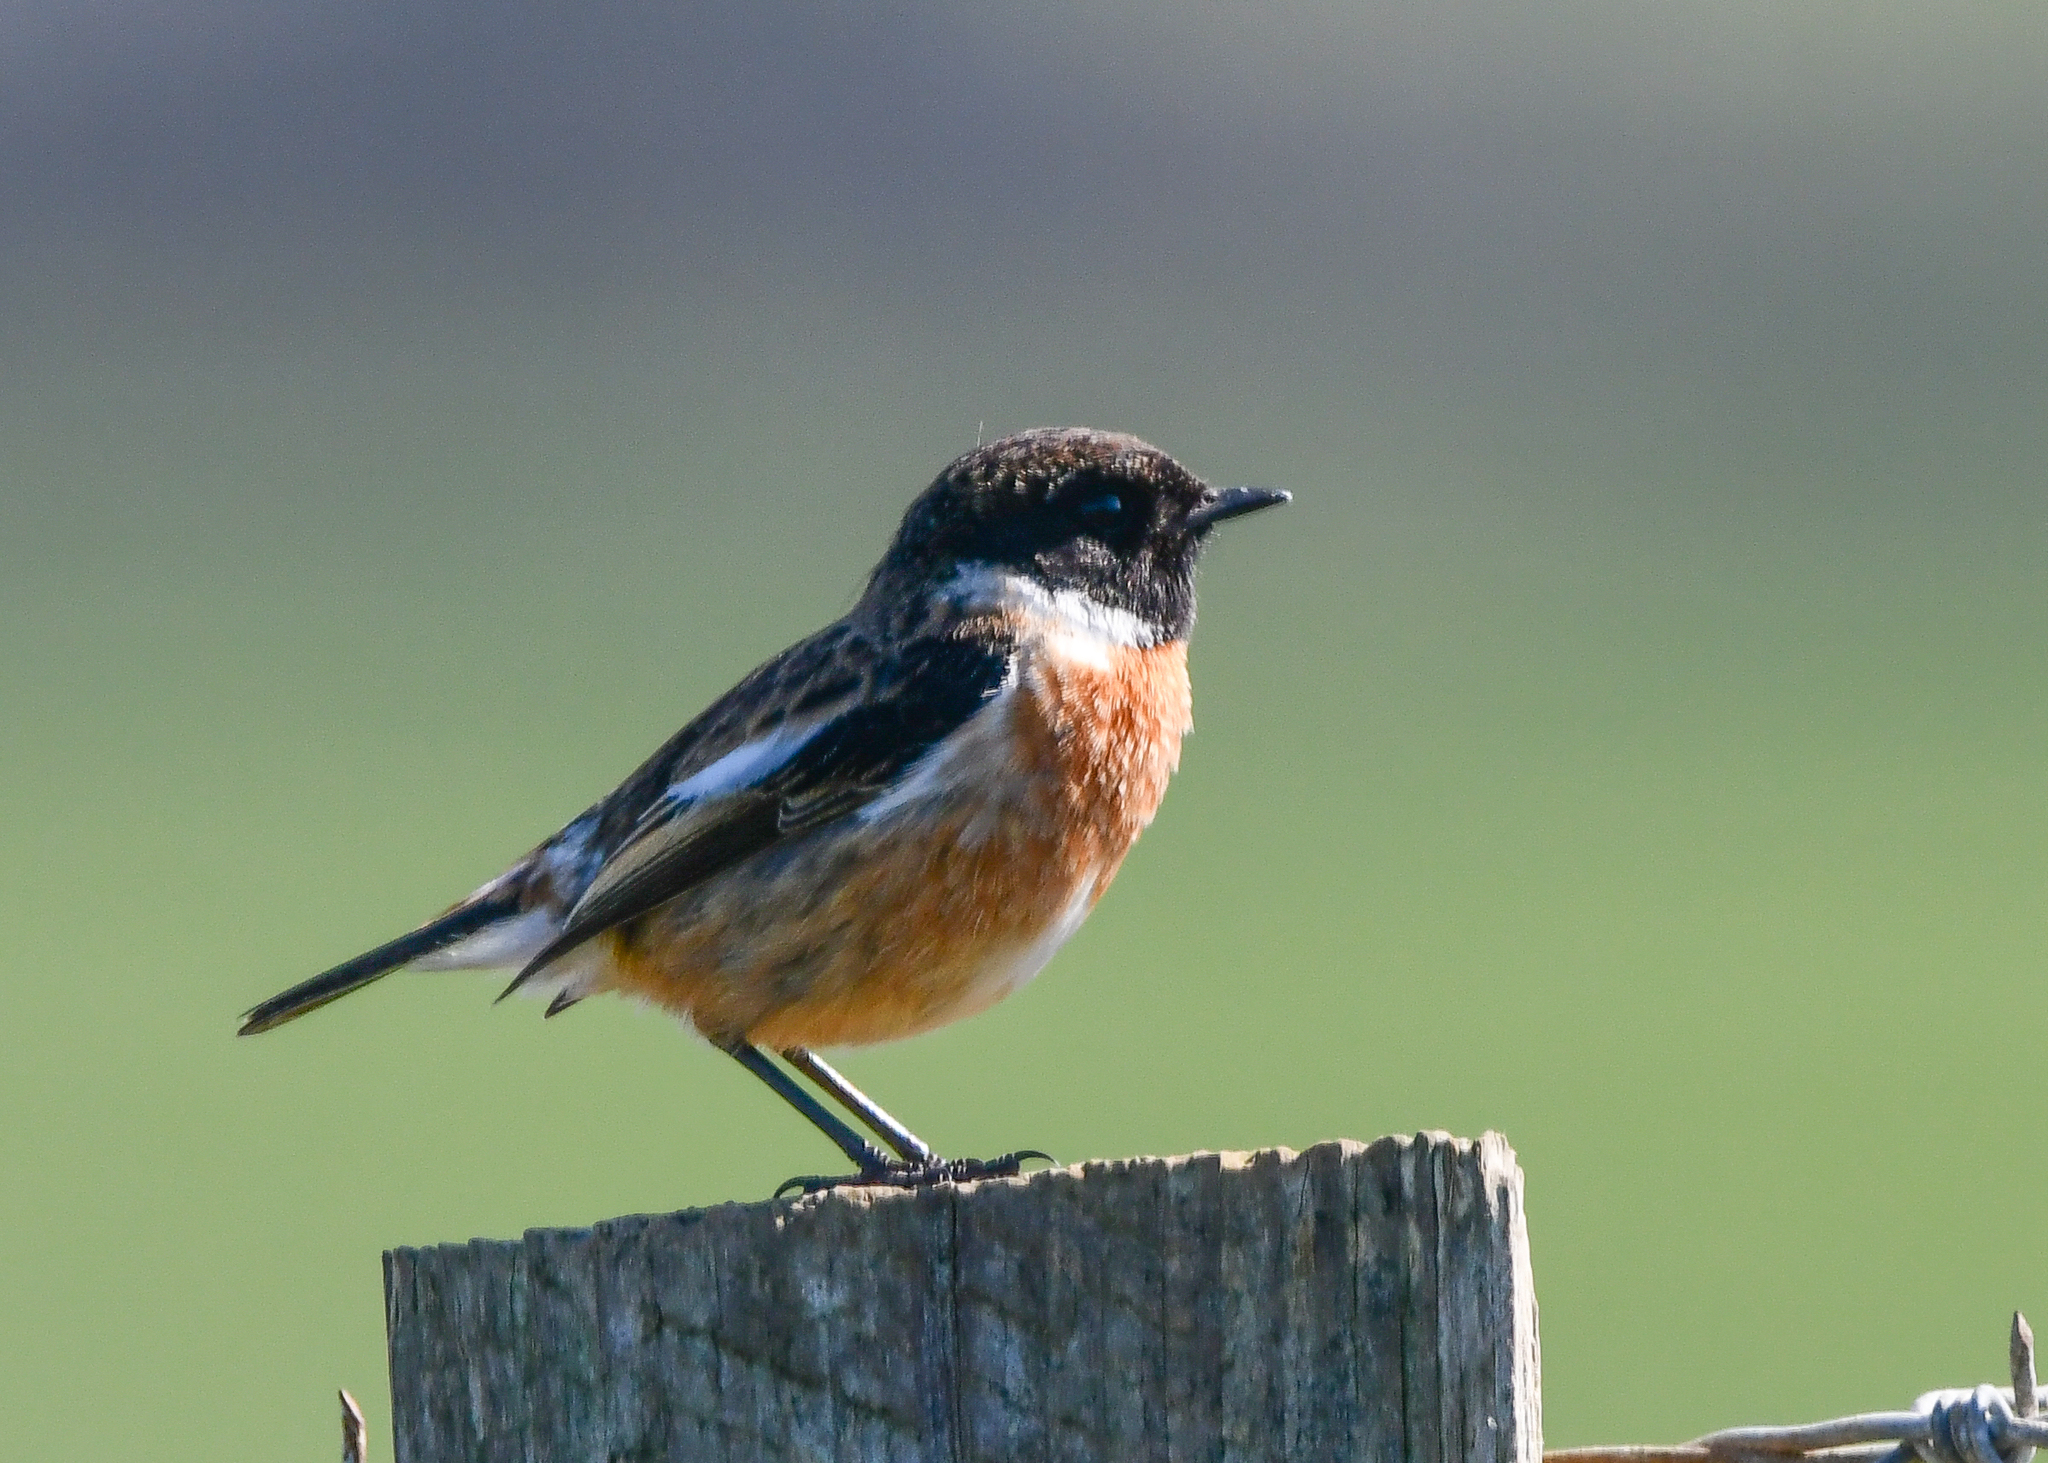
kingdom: Animalia
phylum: Chordata
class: Aves
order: Passeriformes
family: Muscicapidae
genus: Saxicola
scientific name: Saxicola rubicola
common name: European stonechat
